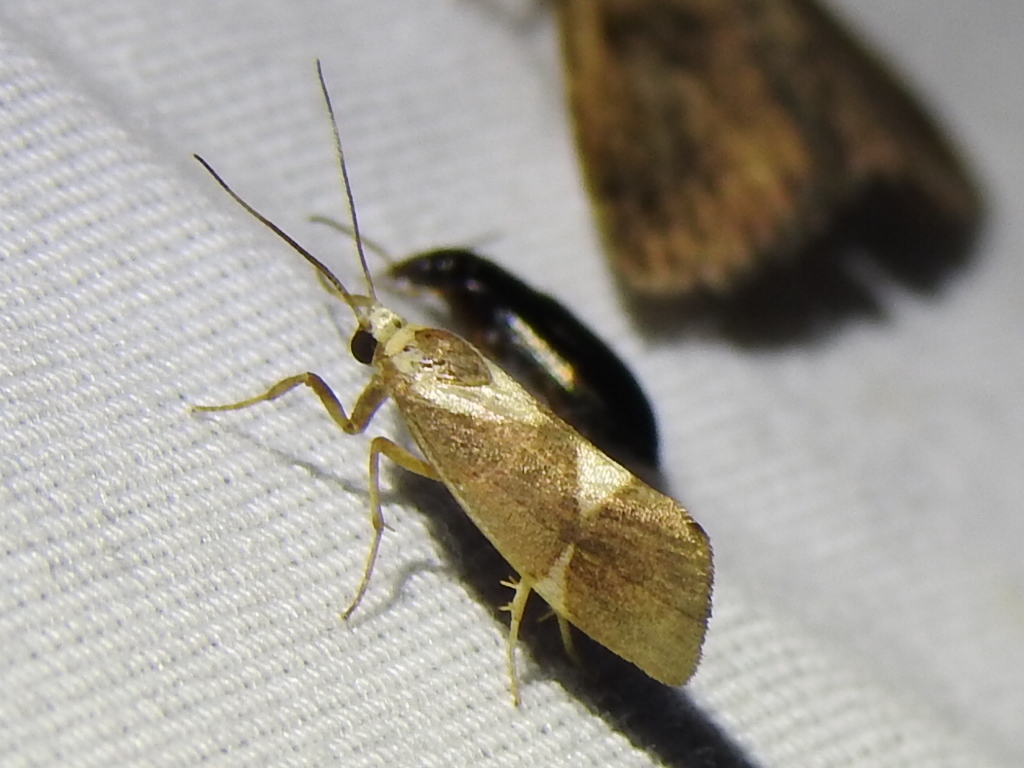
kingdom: Animalia
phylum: Arthropoda
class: Insecta
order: Lepidoptera
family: Erebidae
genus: Cisthene
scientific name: Cisthene subrufa
